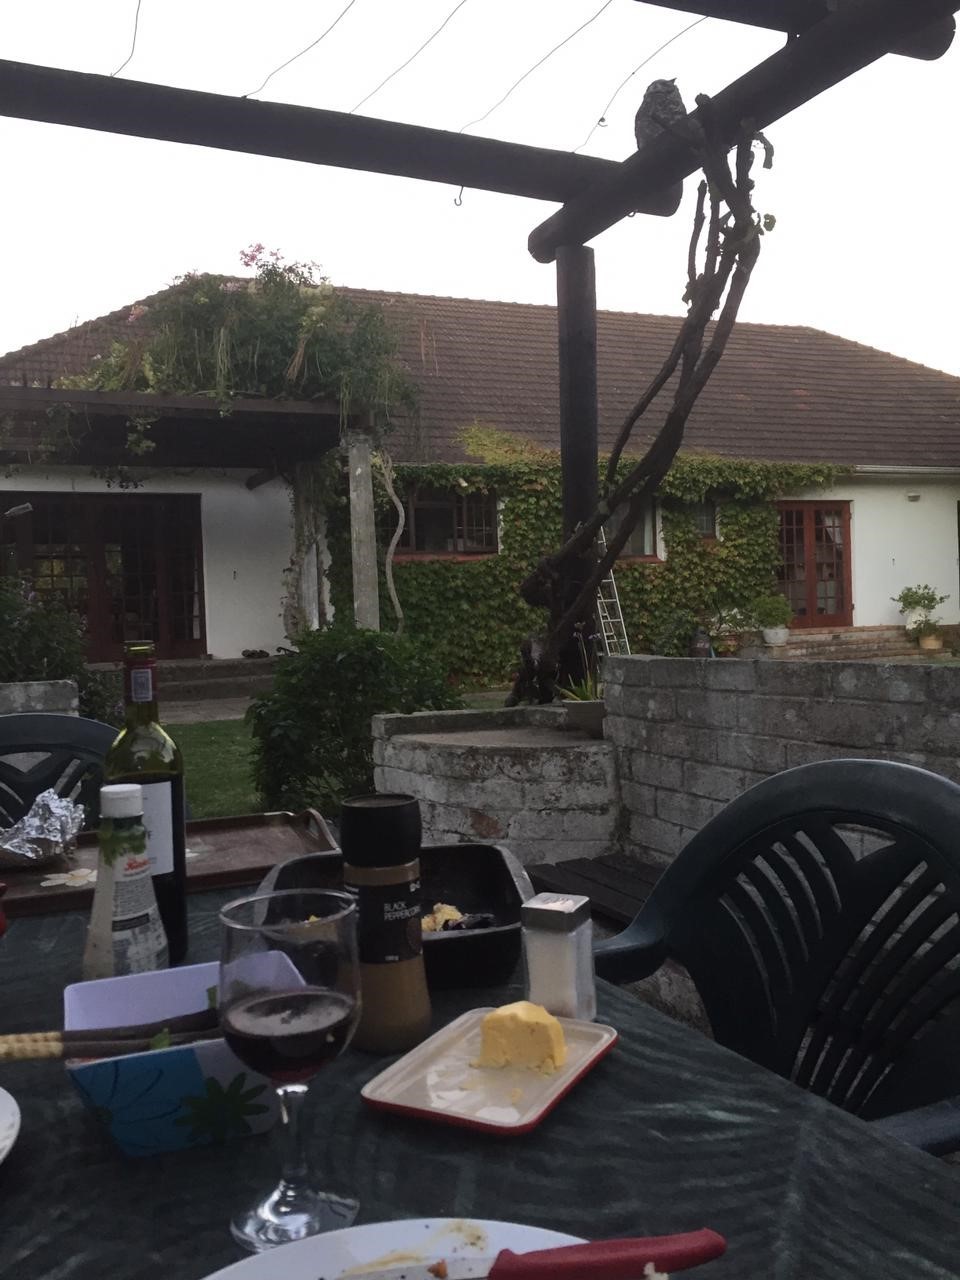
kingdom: Animalia
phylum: Chordata
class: Aves
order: Strigiformes
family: Strigidae
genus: Bubo
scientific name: Bubo africanus
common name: Spotted eagle-owl
